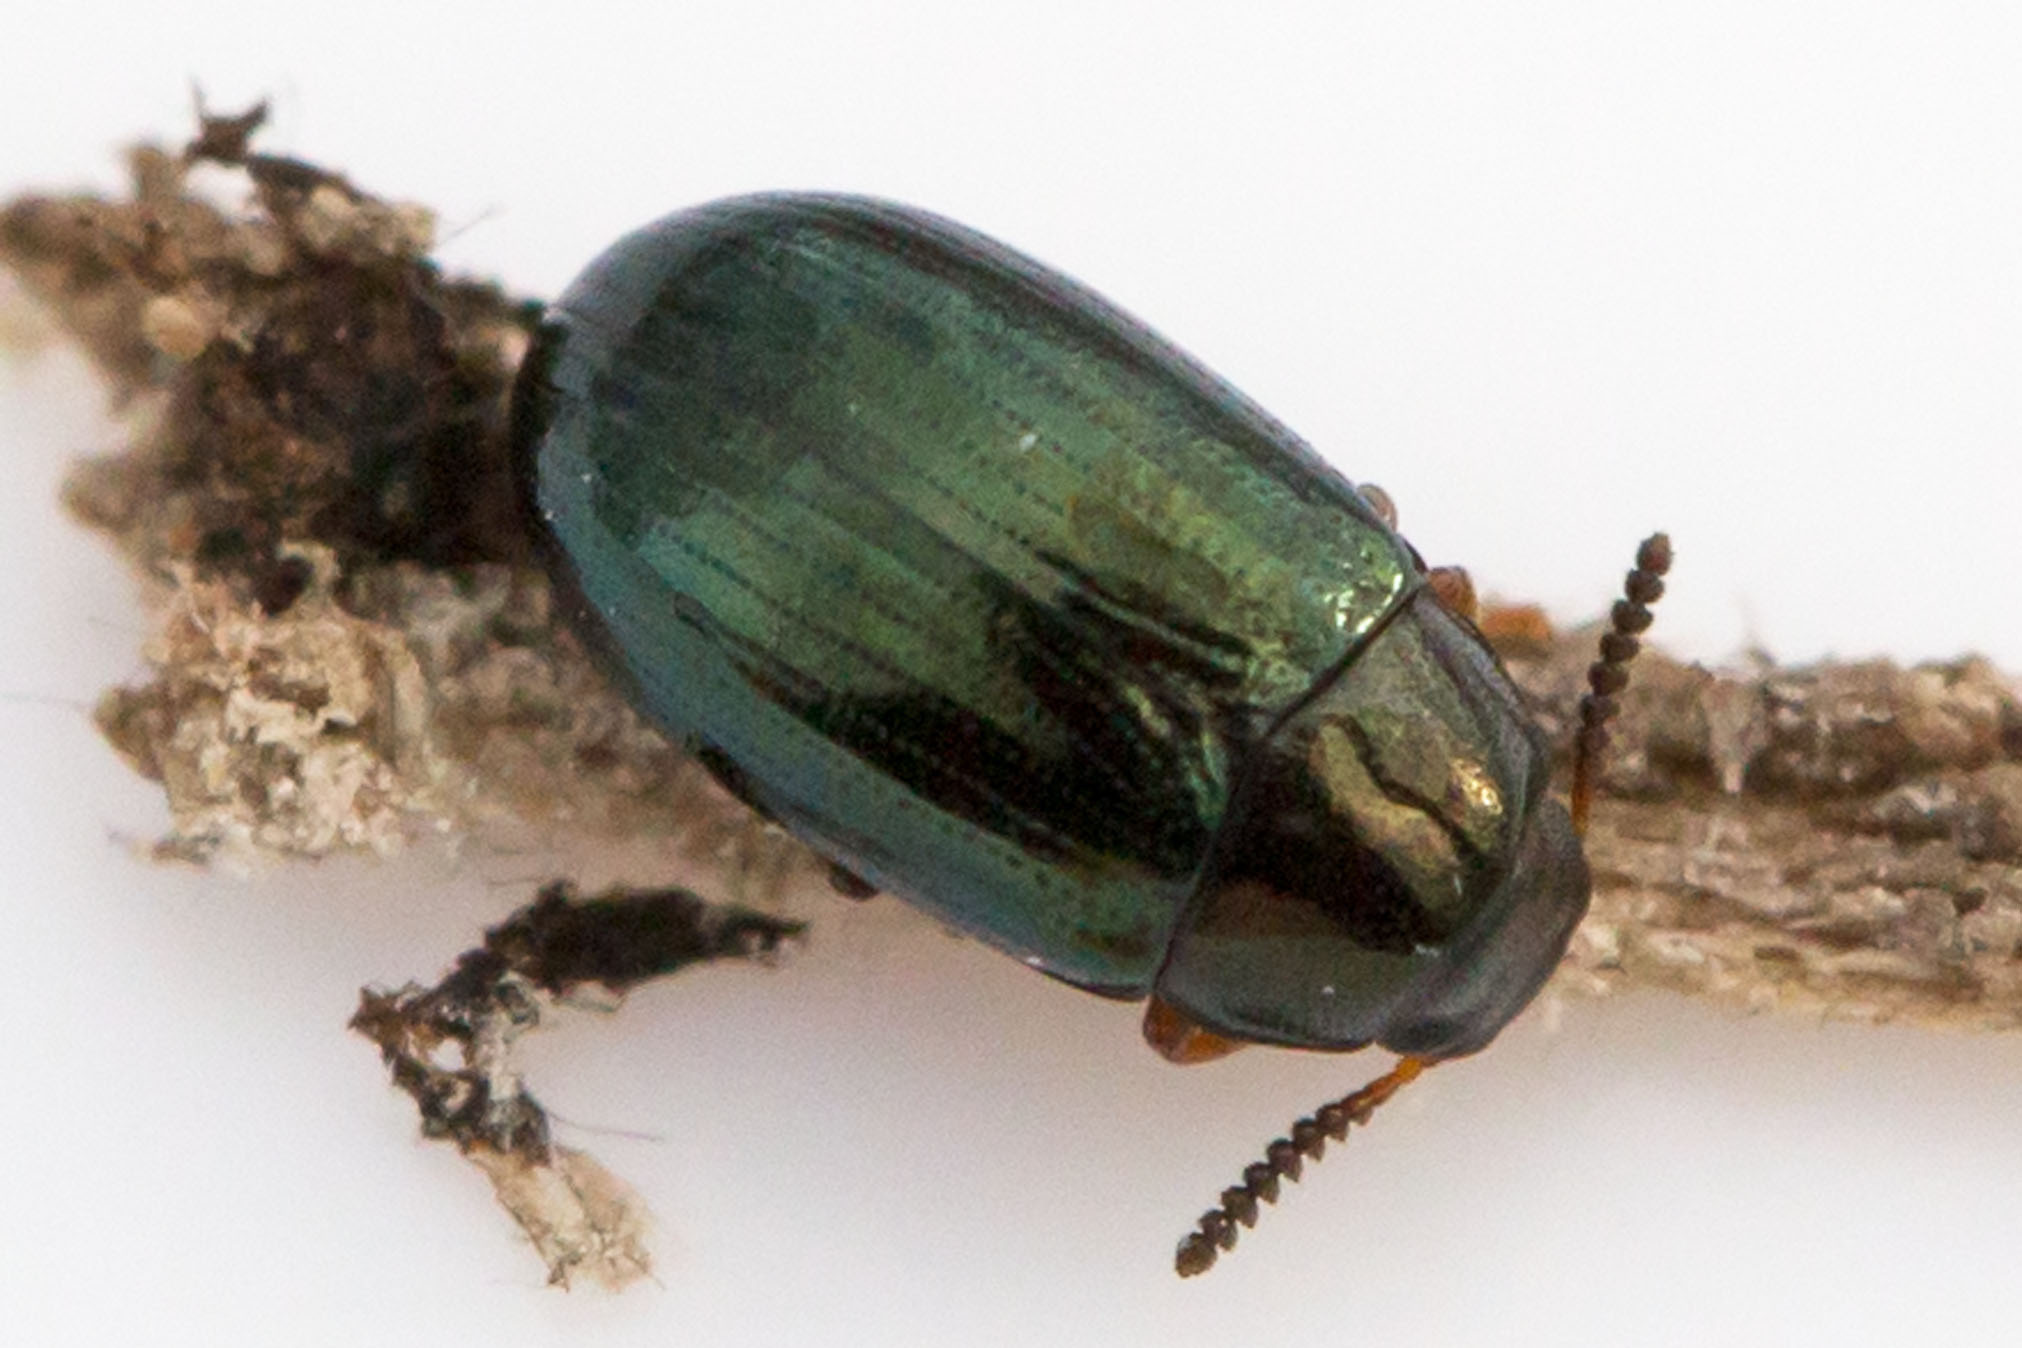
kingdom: Animalia
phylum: Arthropoda
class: Insecta
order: Coleoptera
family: Tenebrionidae
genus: Neomida
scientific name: Neomida bicornis
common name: Two-horned darkling beetle
